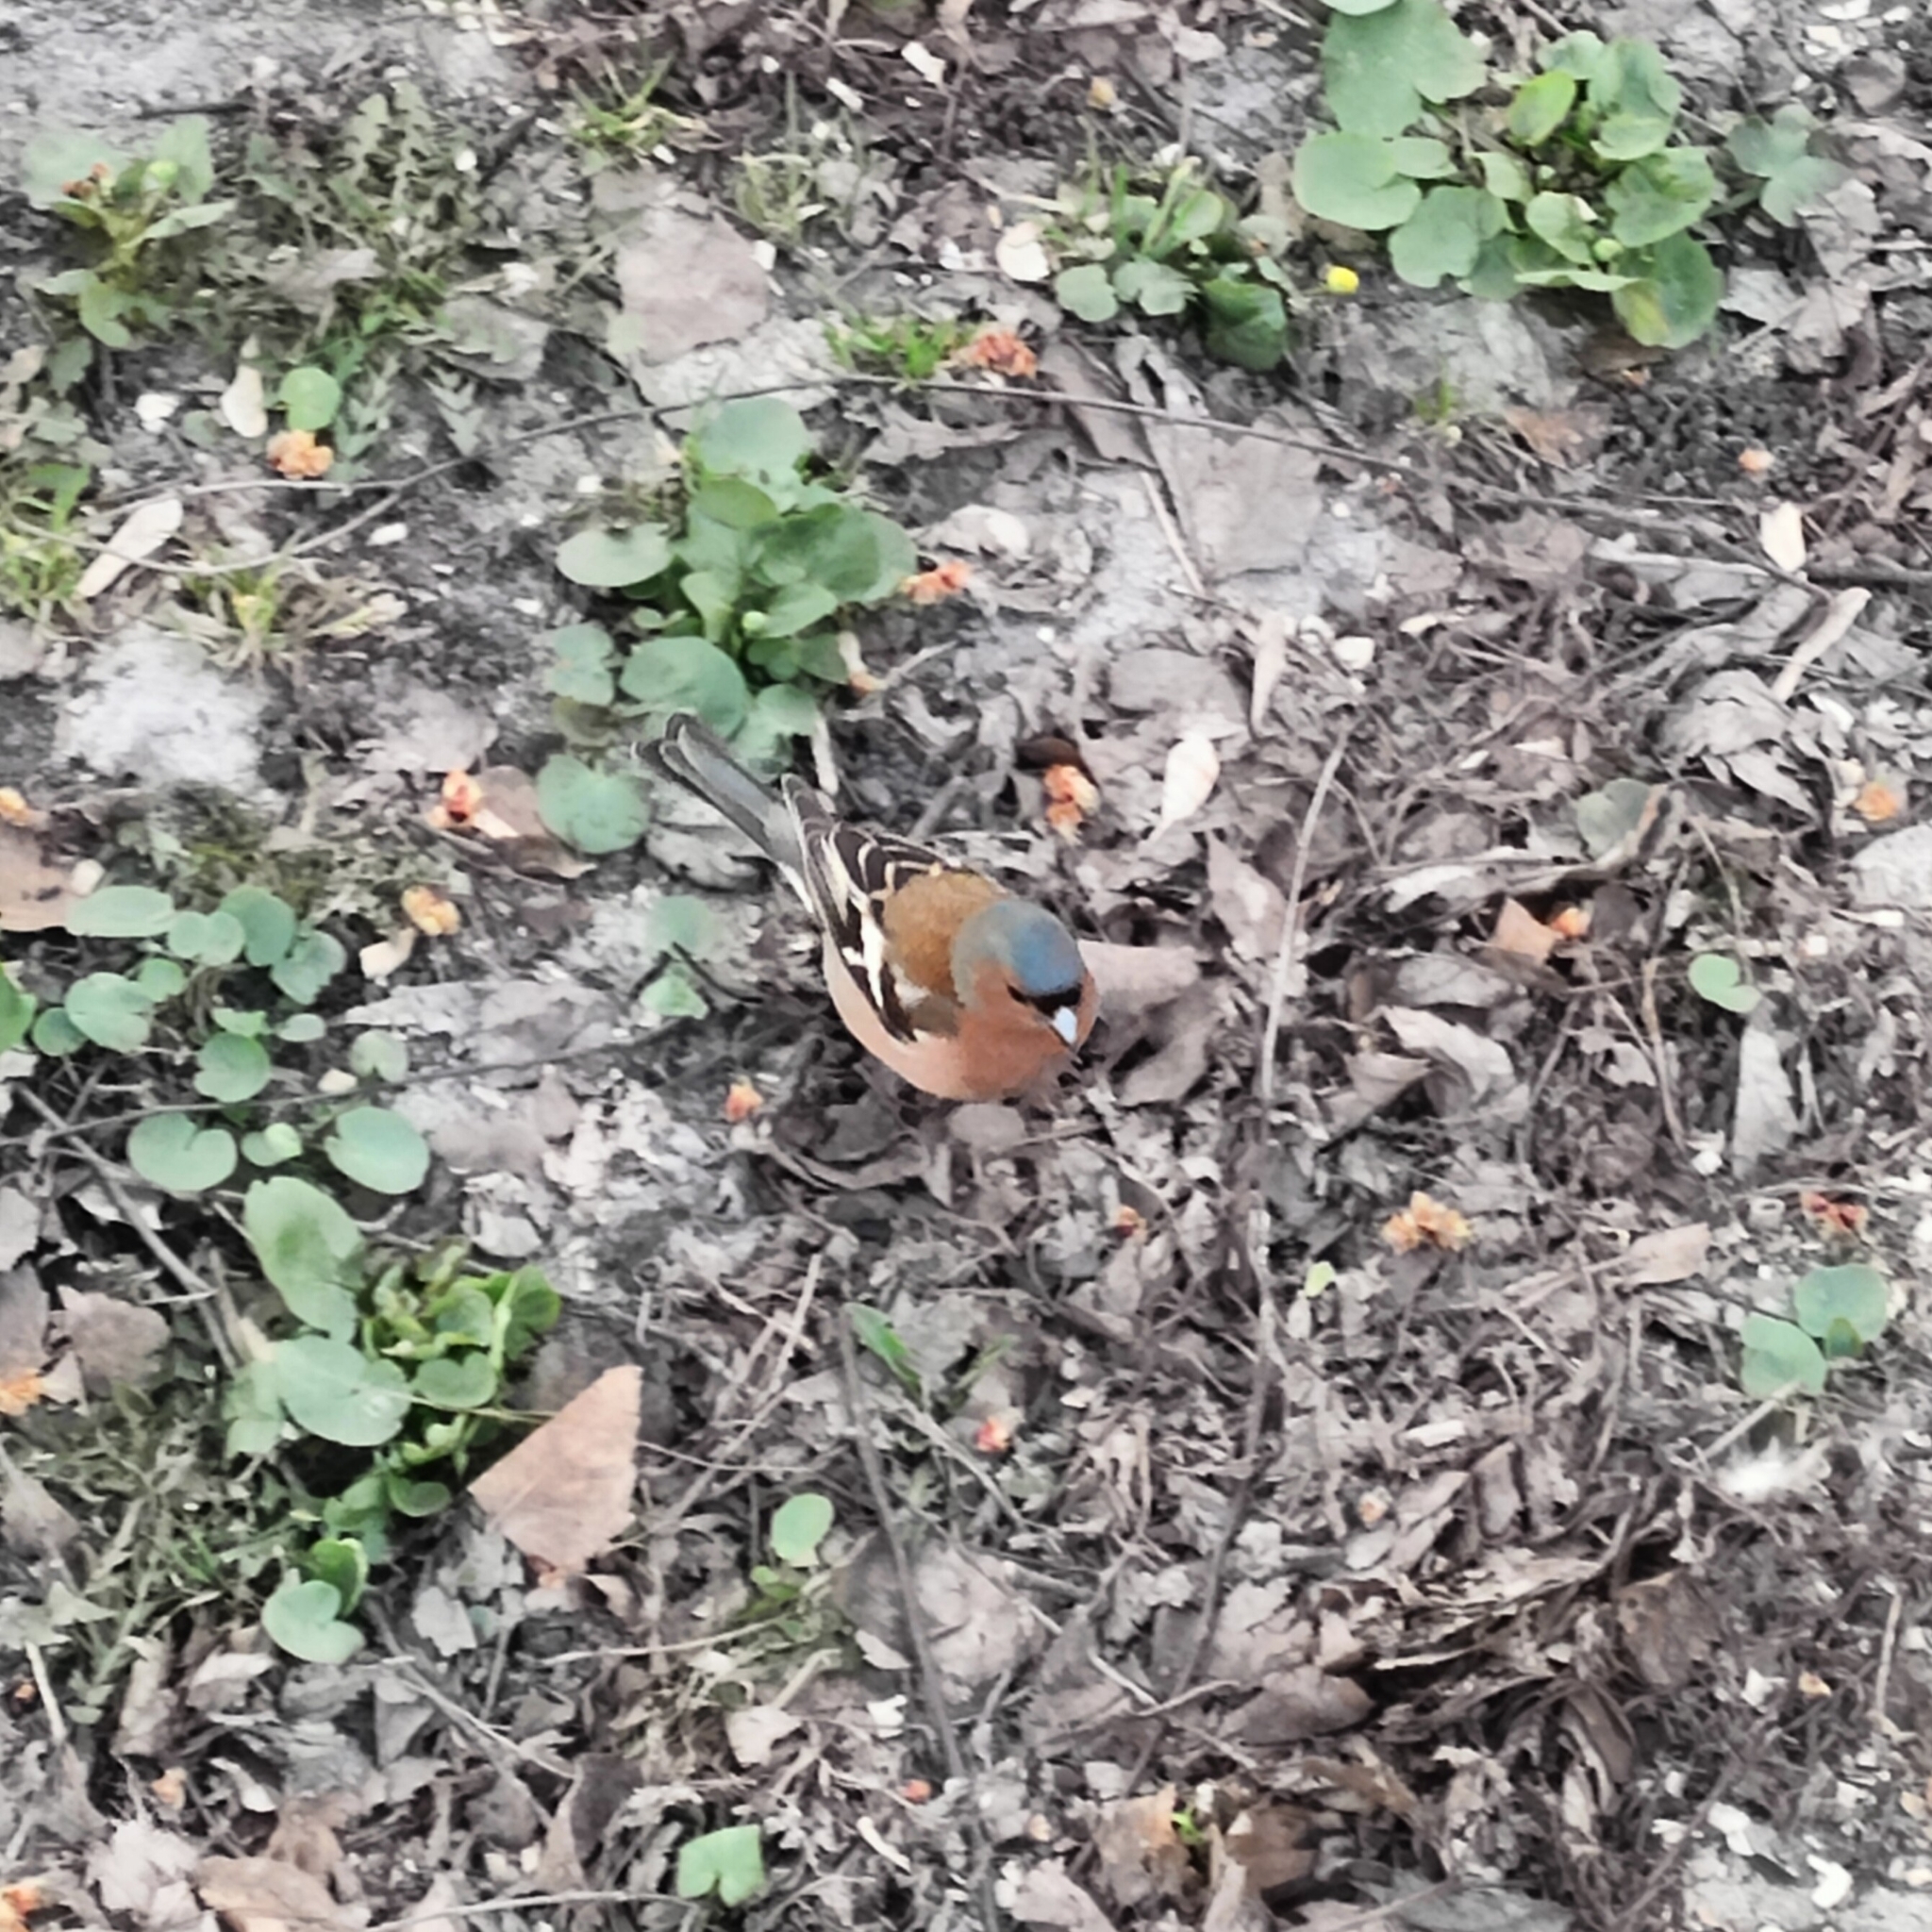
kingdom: Animalia
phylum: Chordata
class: Aves
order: Passeriformes
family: Fringillidae
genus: Fringilla
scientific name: Fringilla coelebs
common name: Common chaffinch
